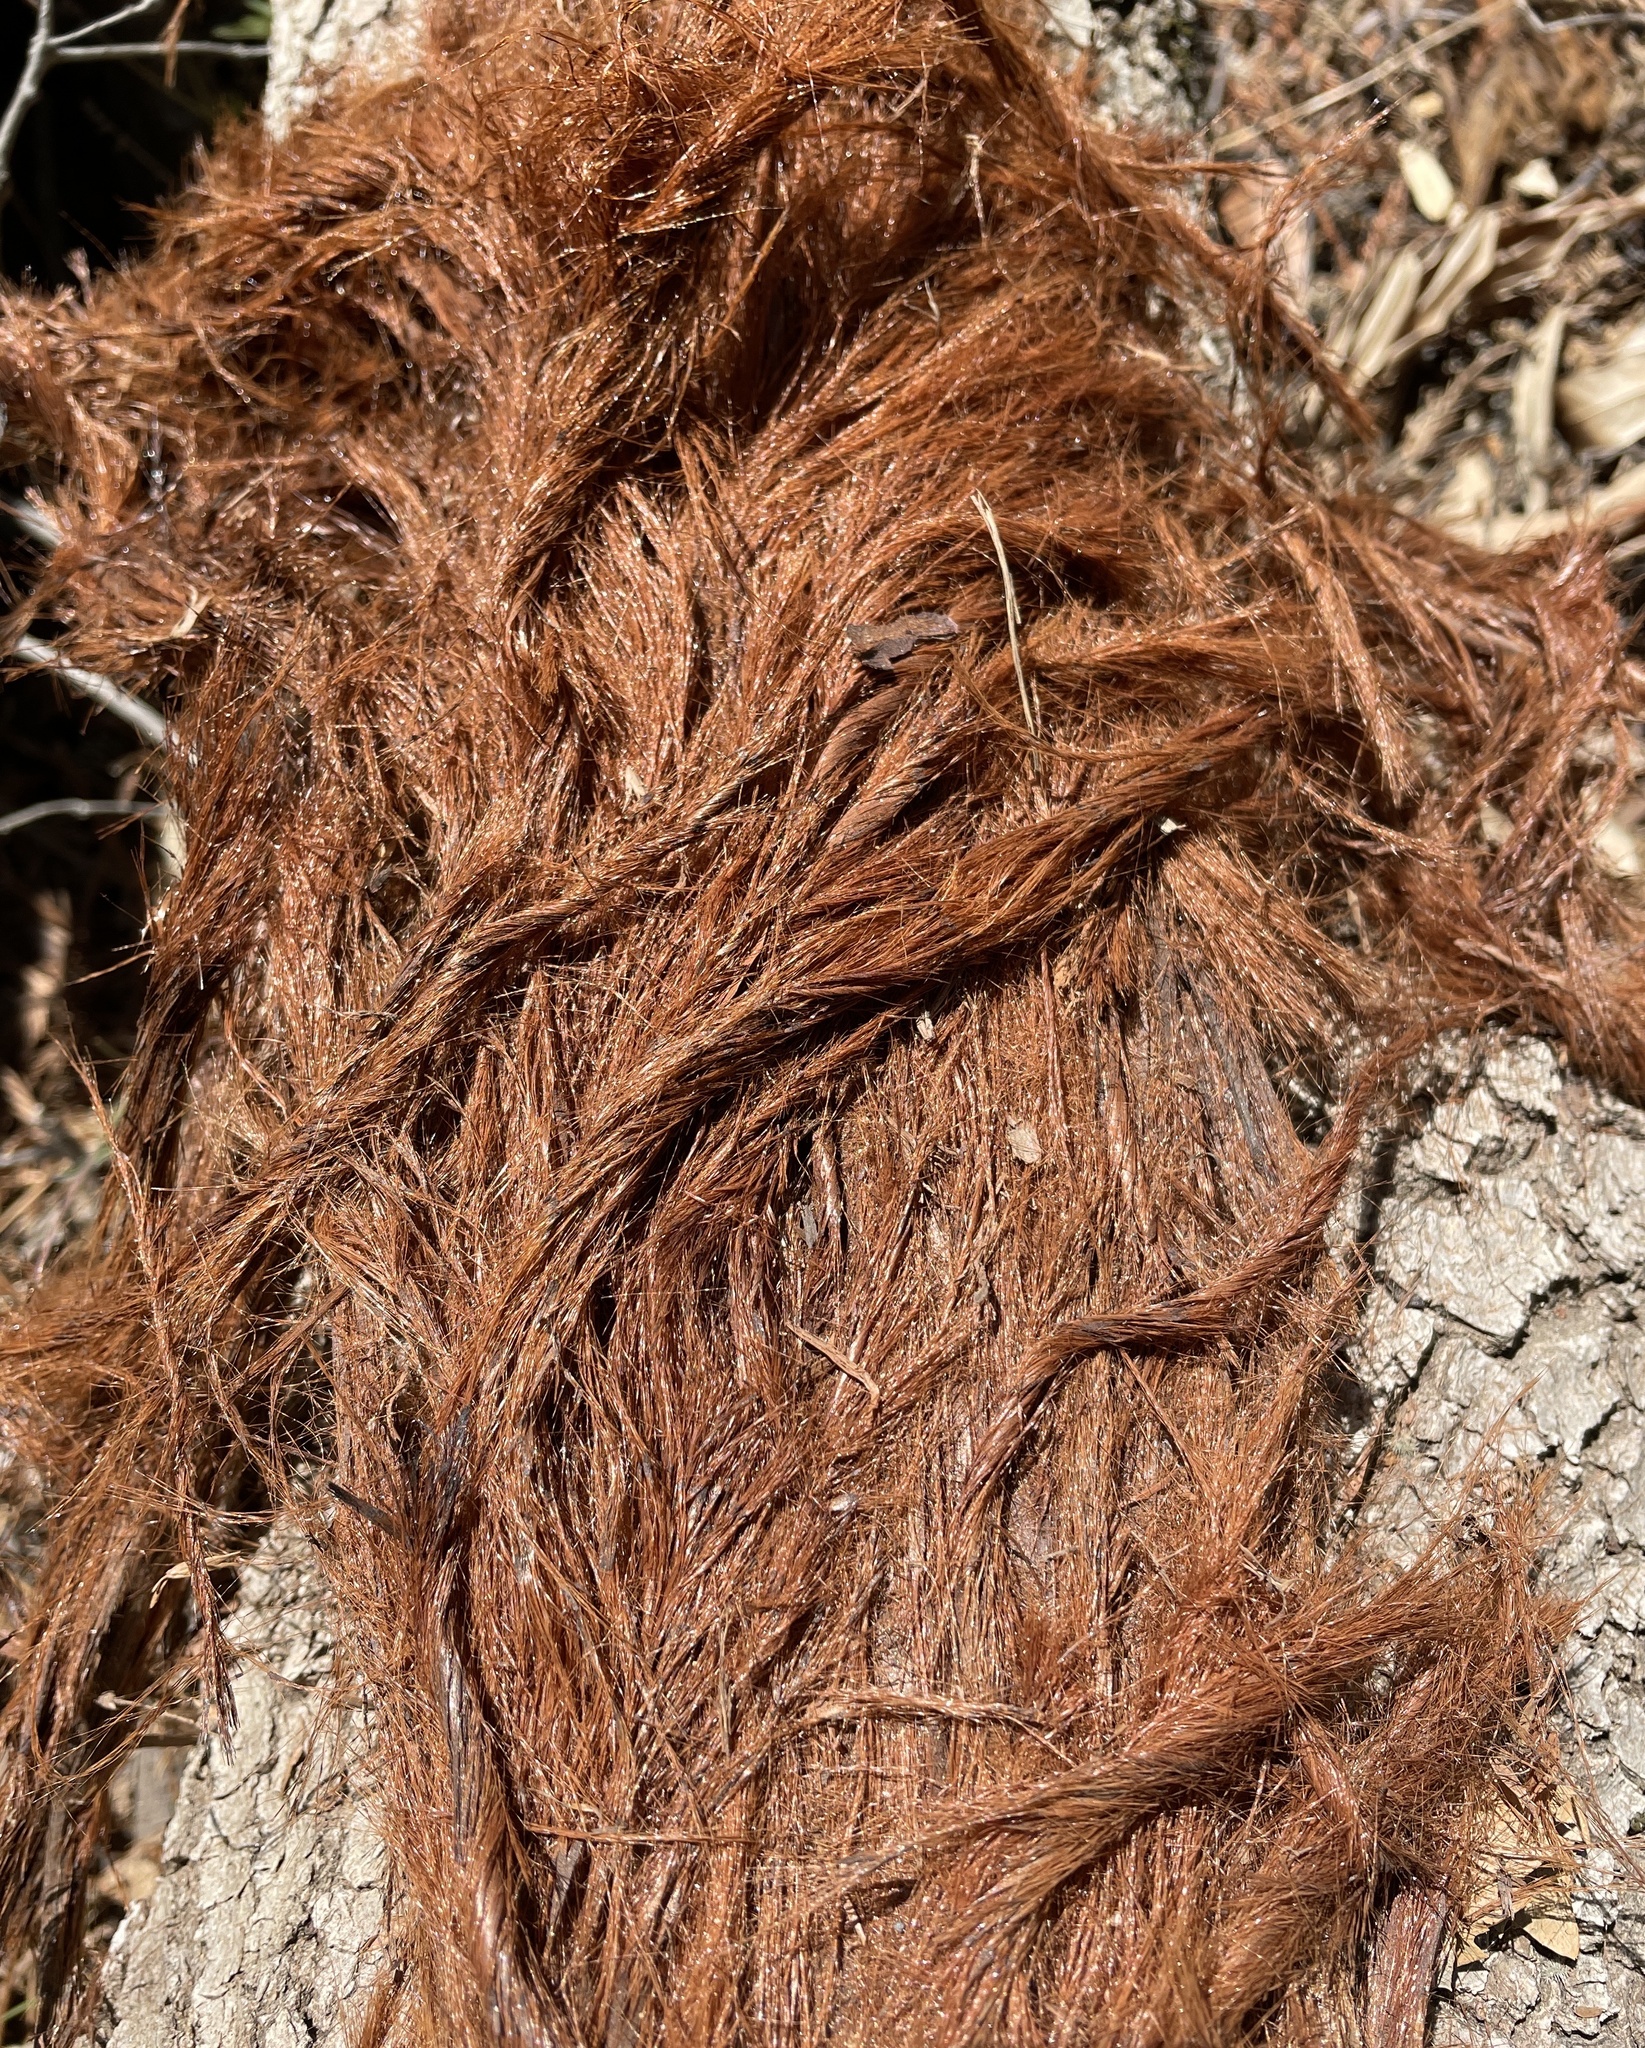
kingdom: Plantae
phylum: Tracheophyta
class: Pinopsida
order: Pinales
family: Cupressaceae
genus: Sequoia
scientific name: Sequoia sempervirens
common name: Coast redwood
